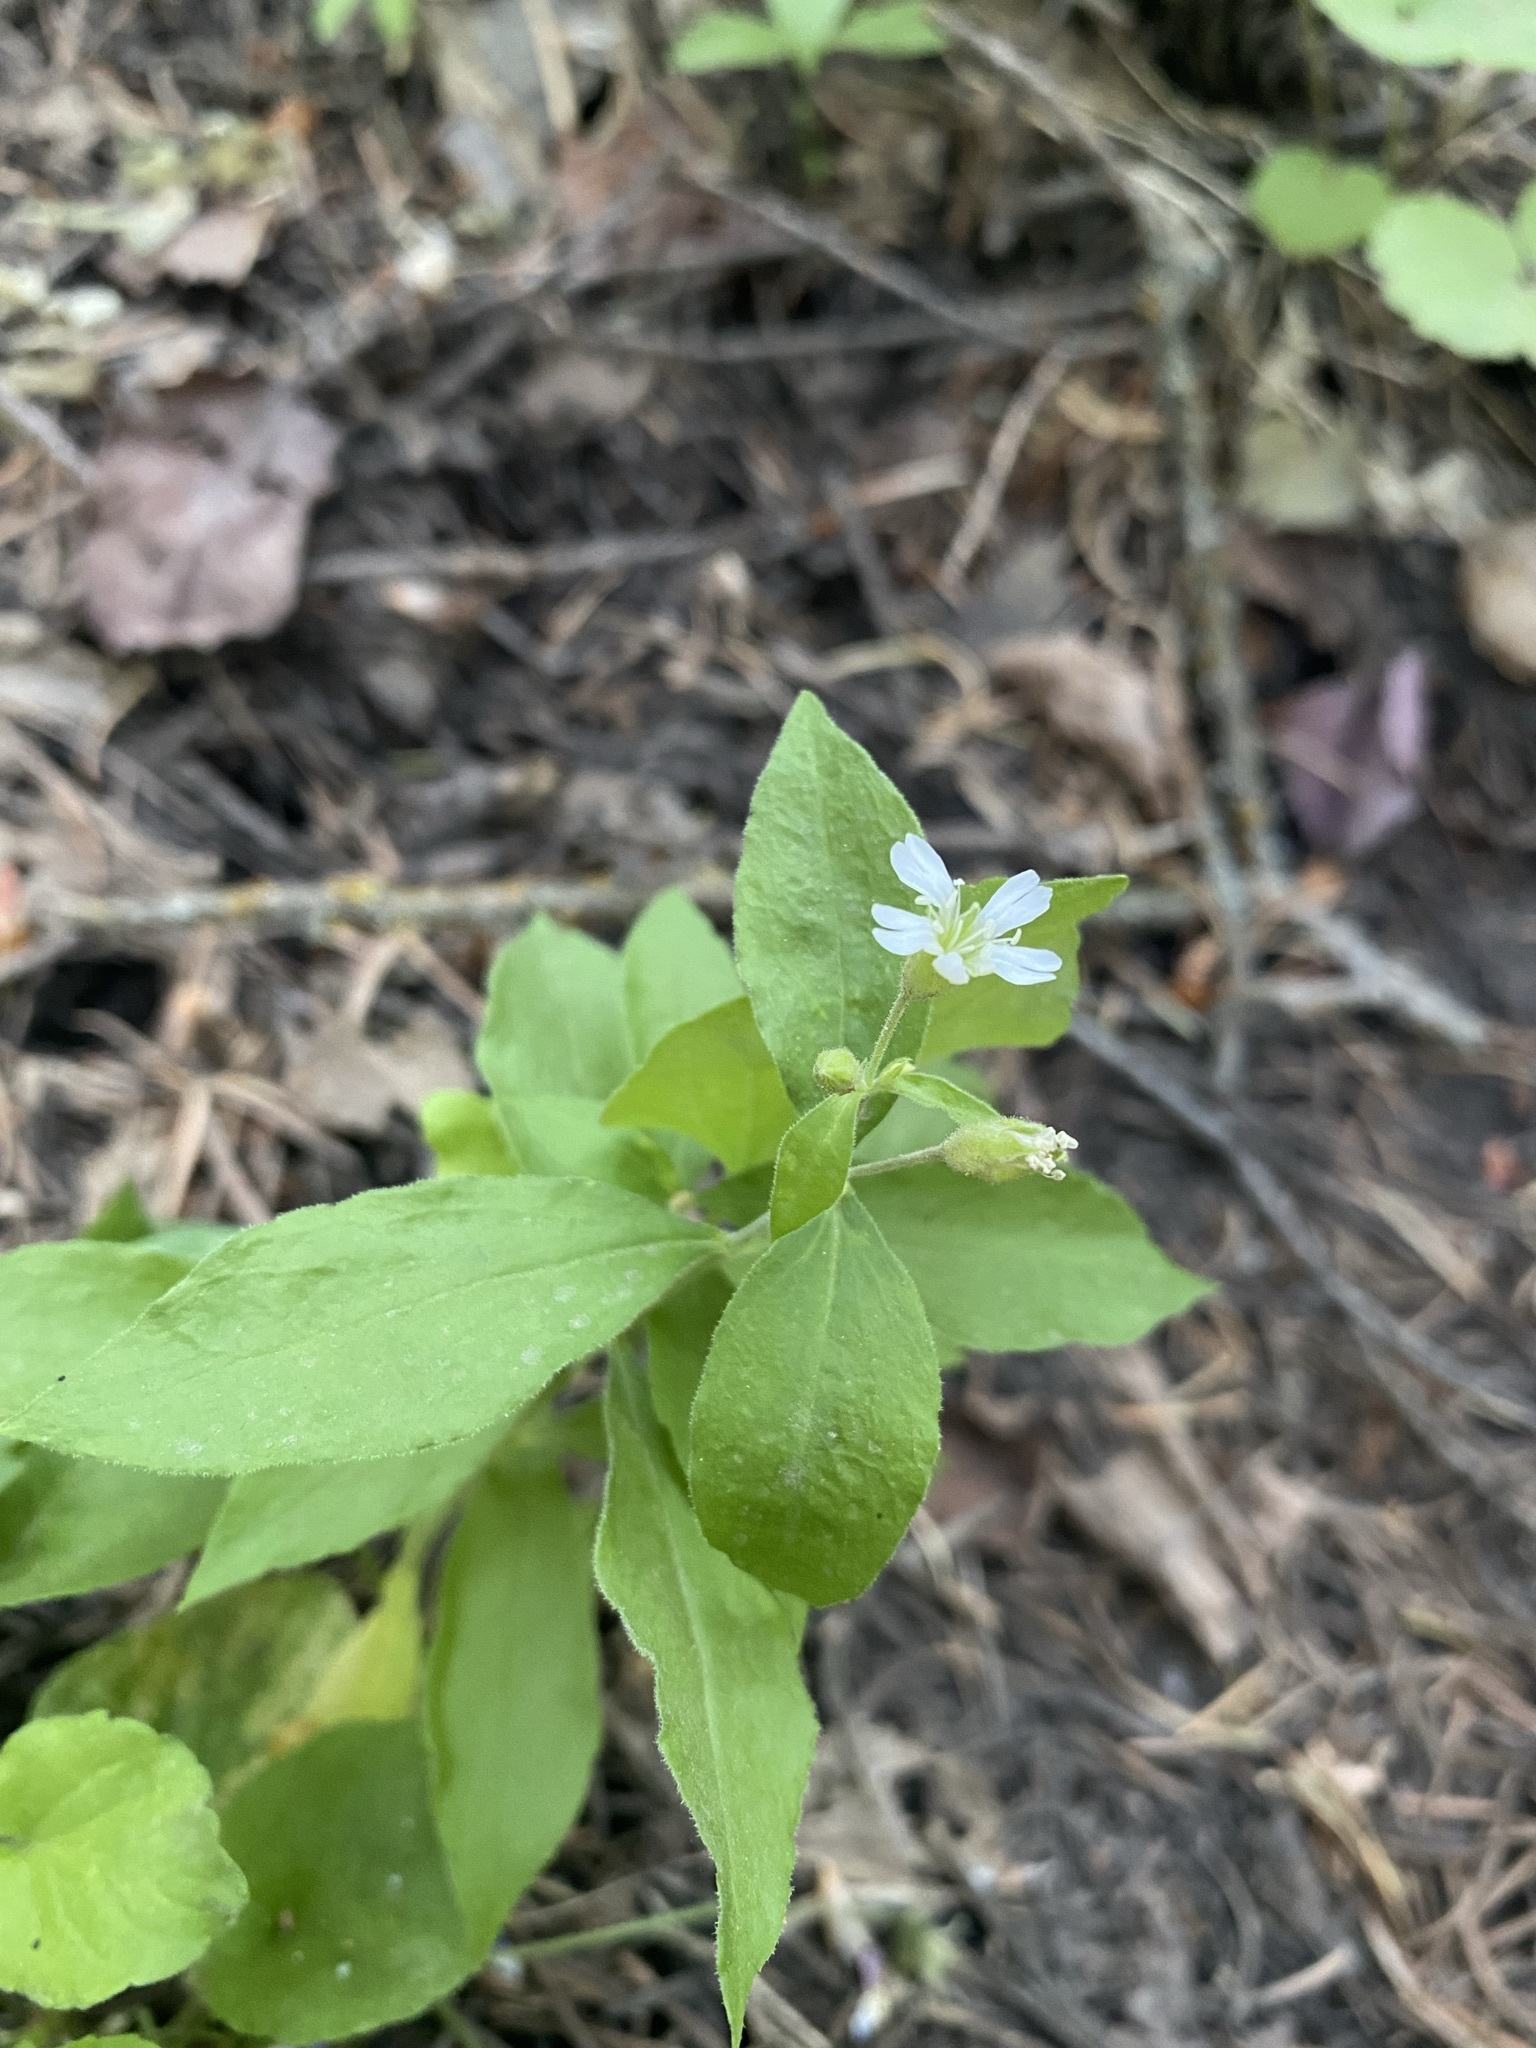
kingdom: Plantae
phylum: Tracheophyta
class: Magnoliopsida
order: Caryophyllales
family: Caryophyllaceae
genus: Silene
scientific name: Silene menziesii
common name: Menzies's catchfly
